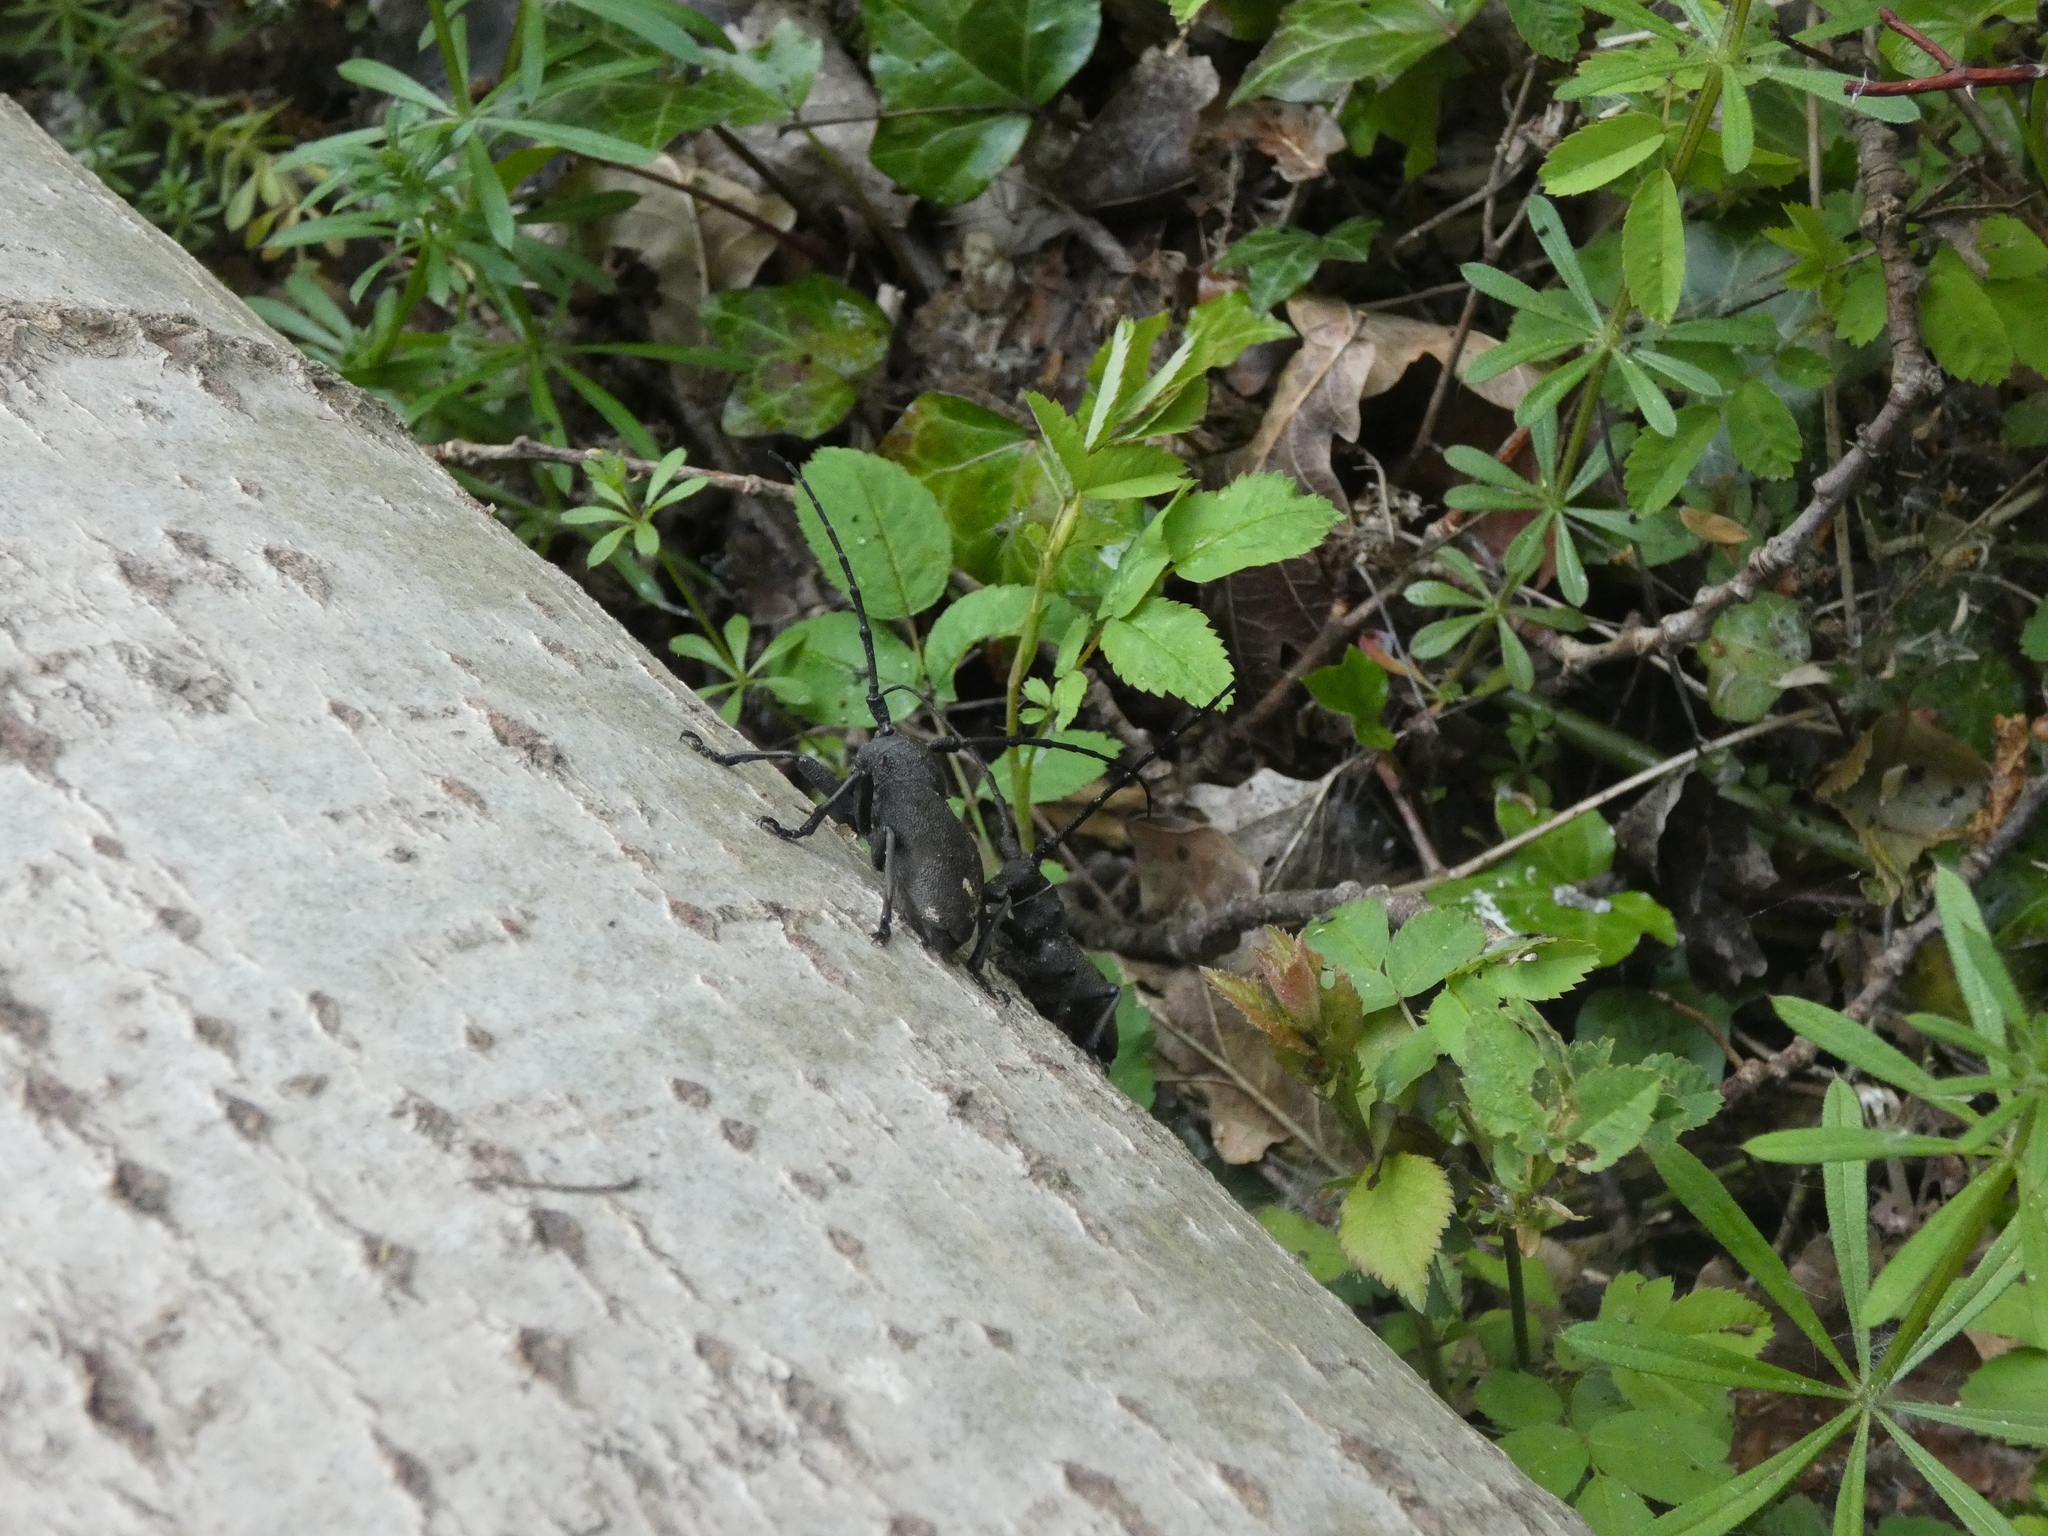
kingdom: Animalia
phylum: Arthropoda
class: Insecta
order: Coleoptera
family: Cerambycidae
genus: Morimus
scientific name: Morimus asper
